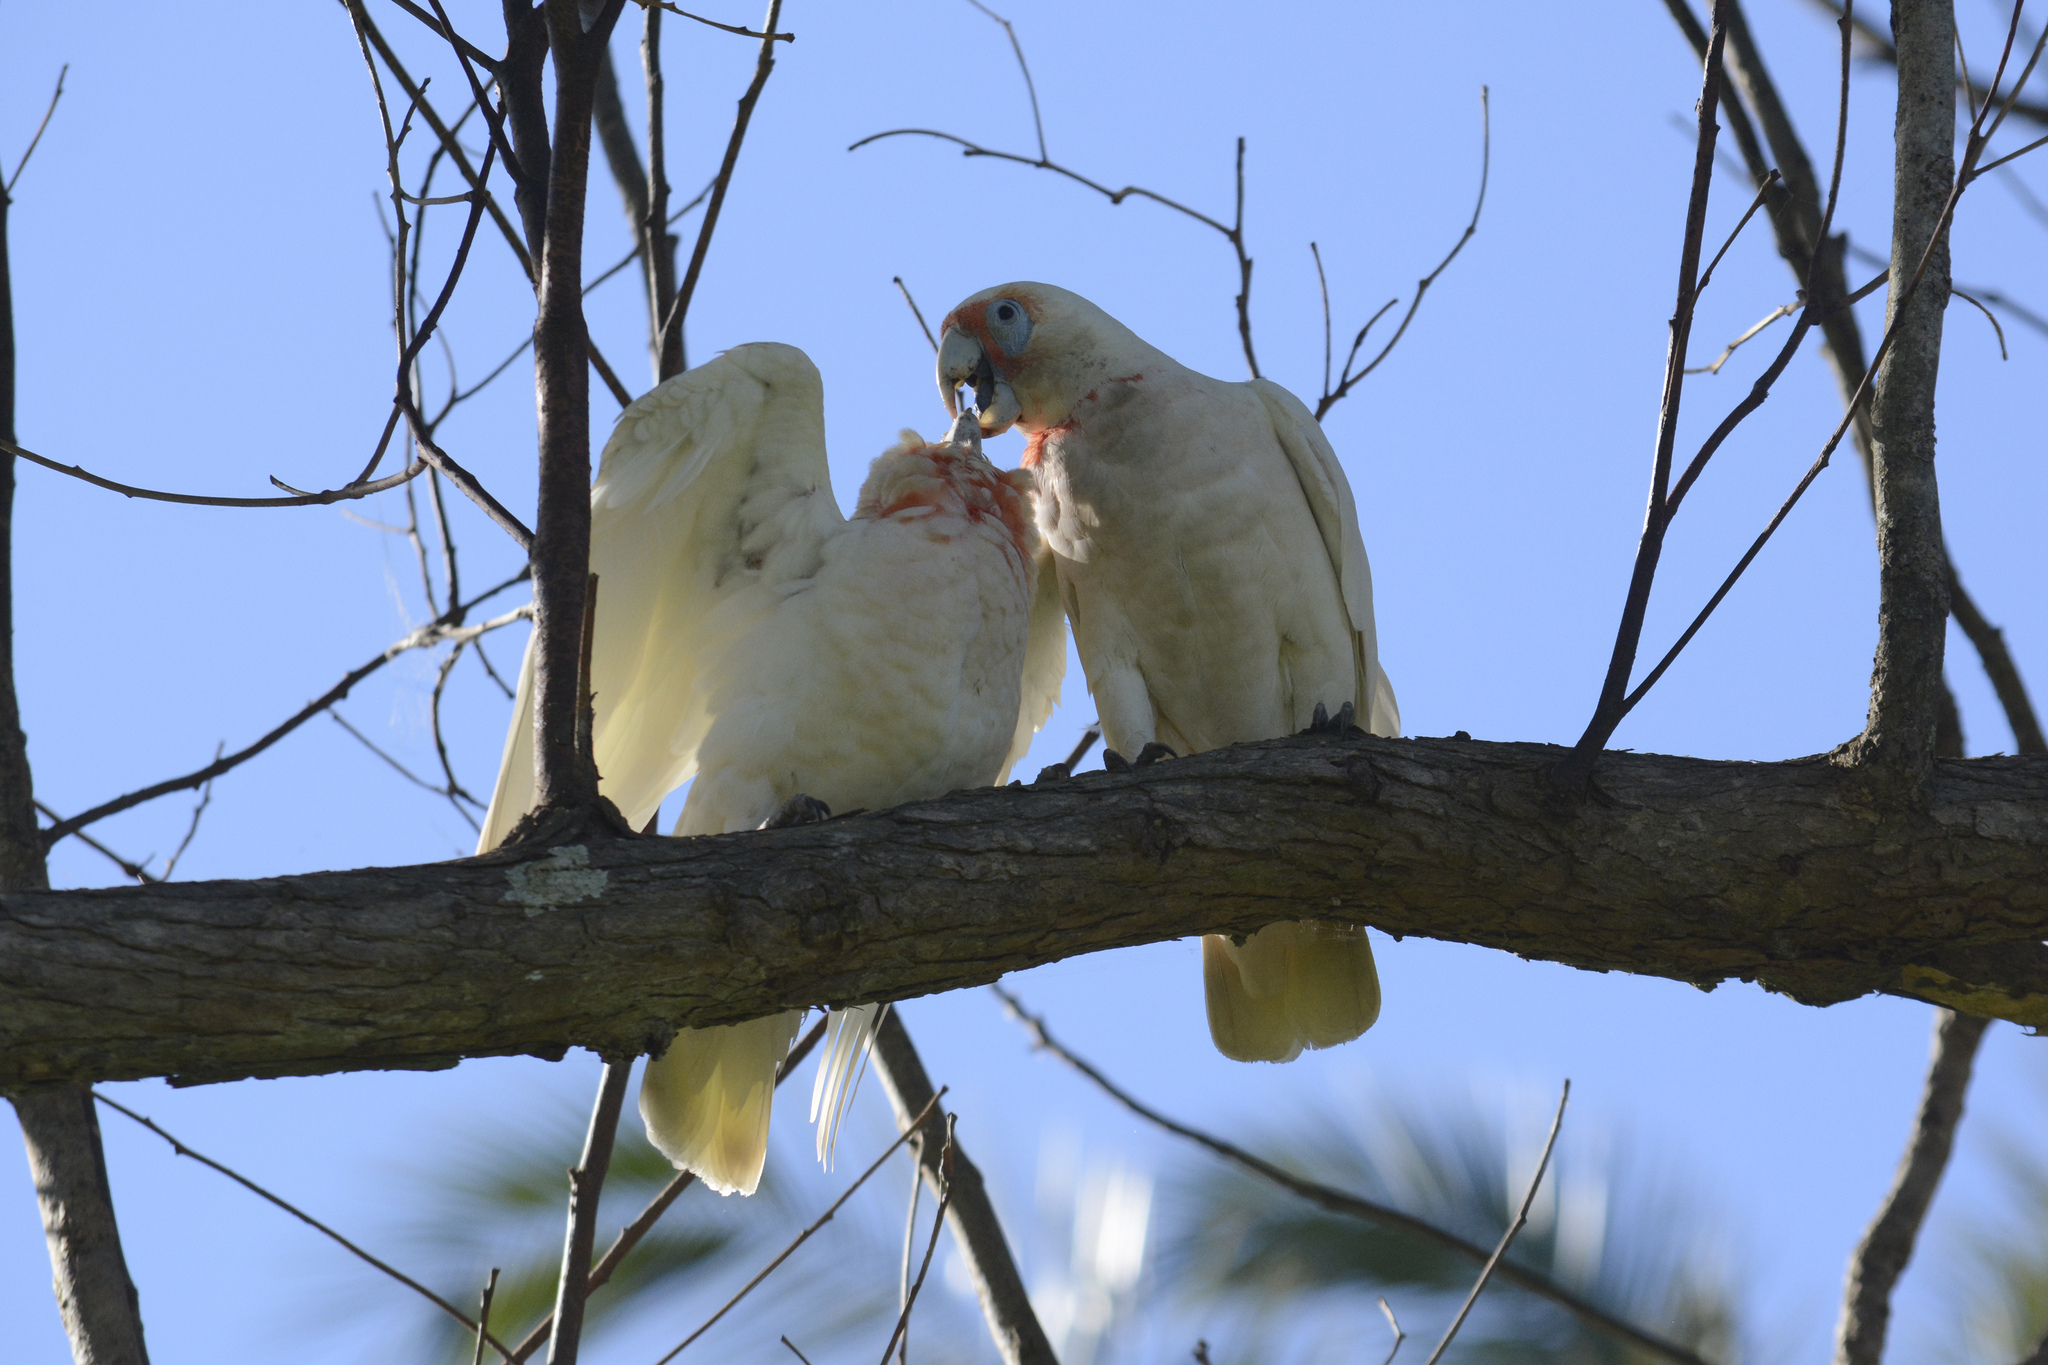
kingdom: Animalia
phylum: Chordata
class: Aves
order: Psittaciformes
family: Psittacidae
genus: Cacatua
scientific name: Cacatua tenuirostris
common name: Long-billed corella
